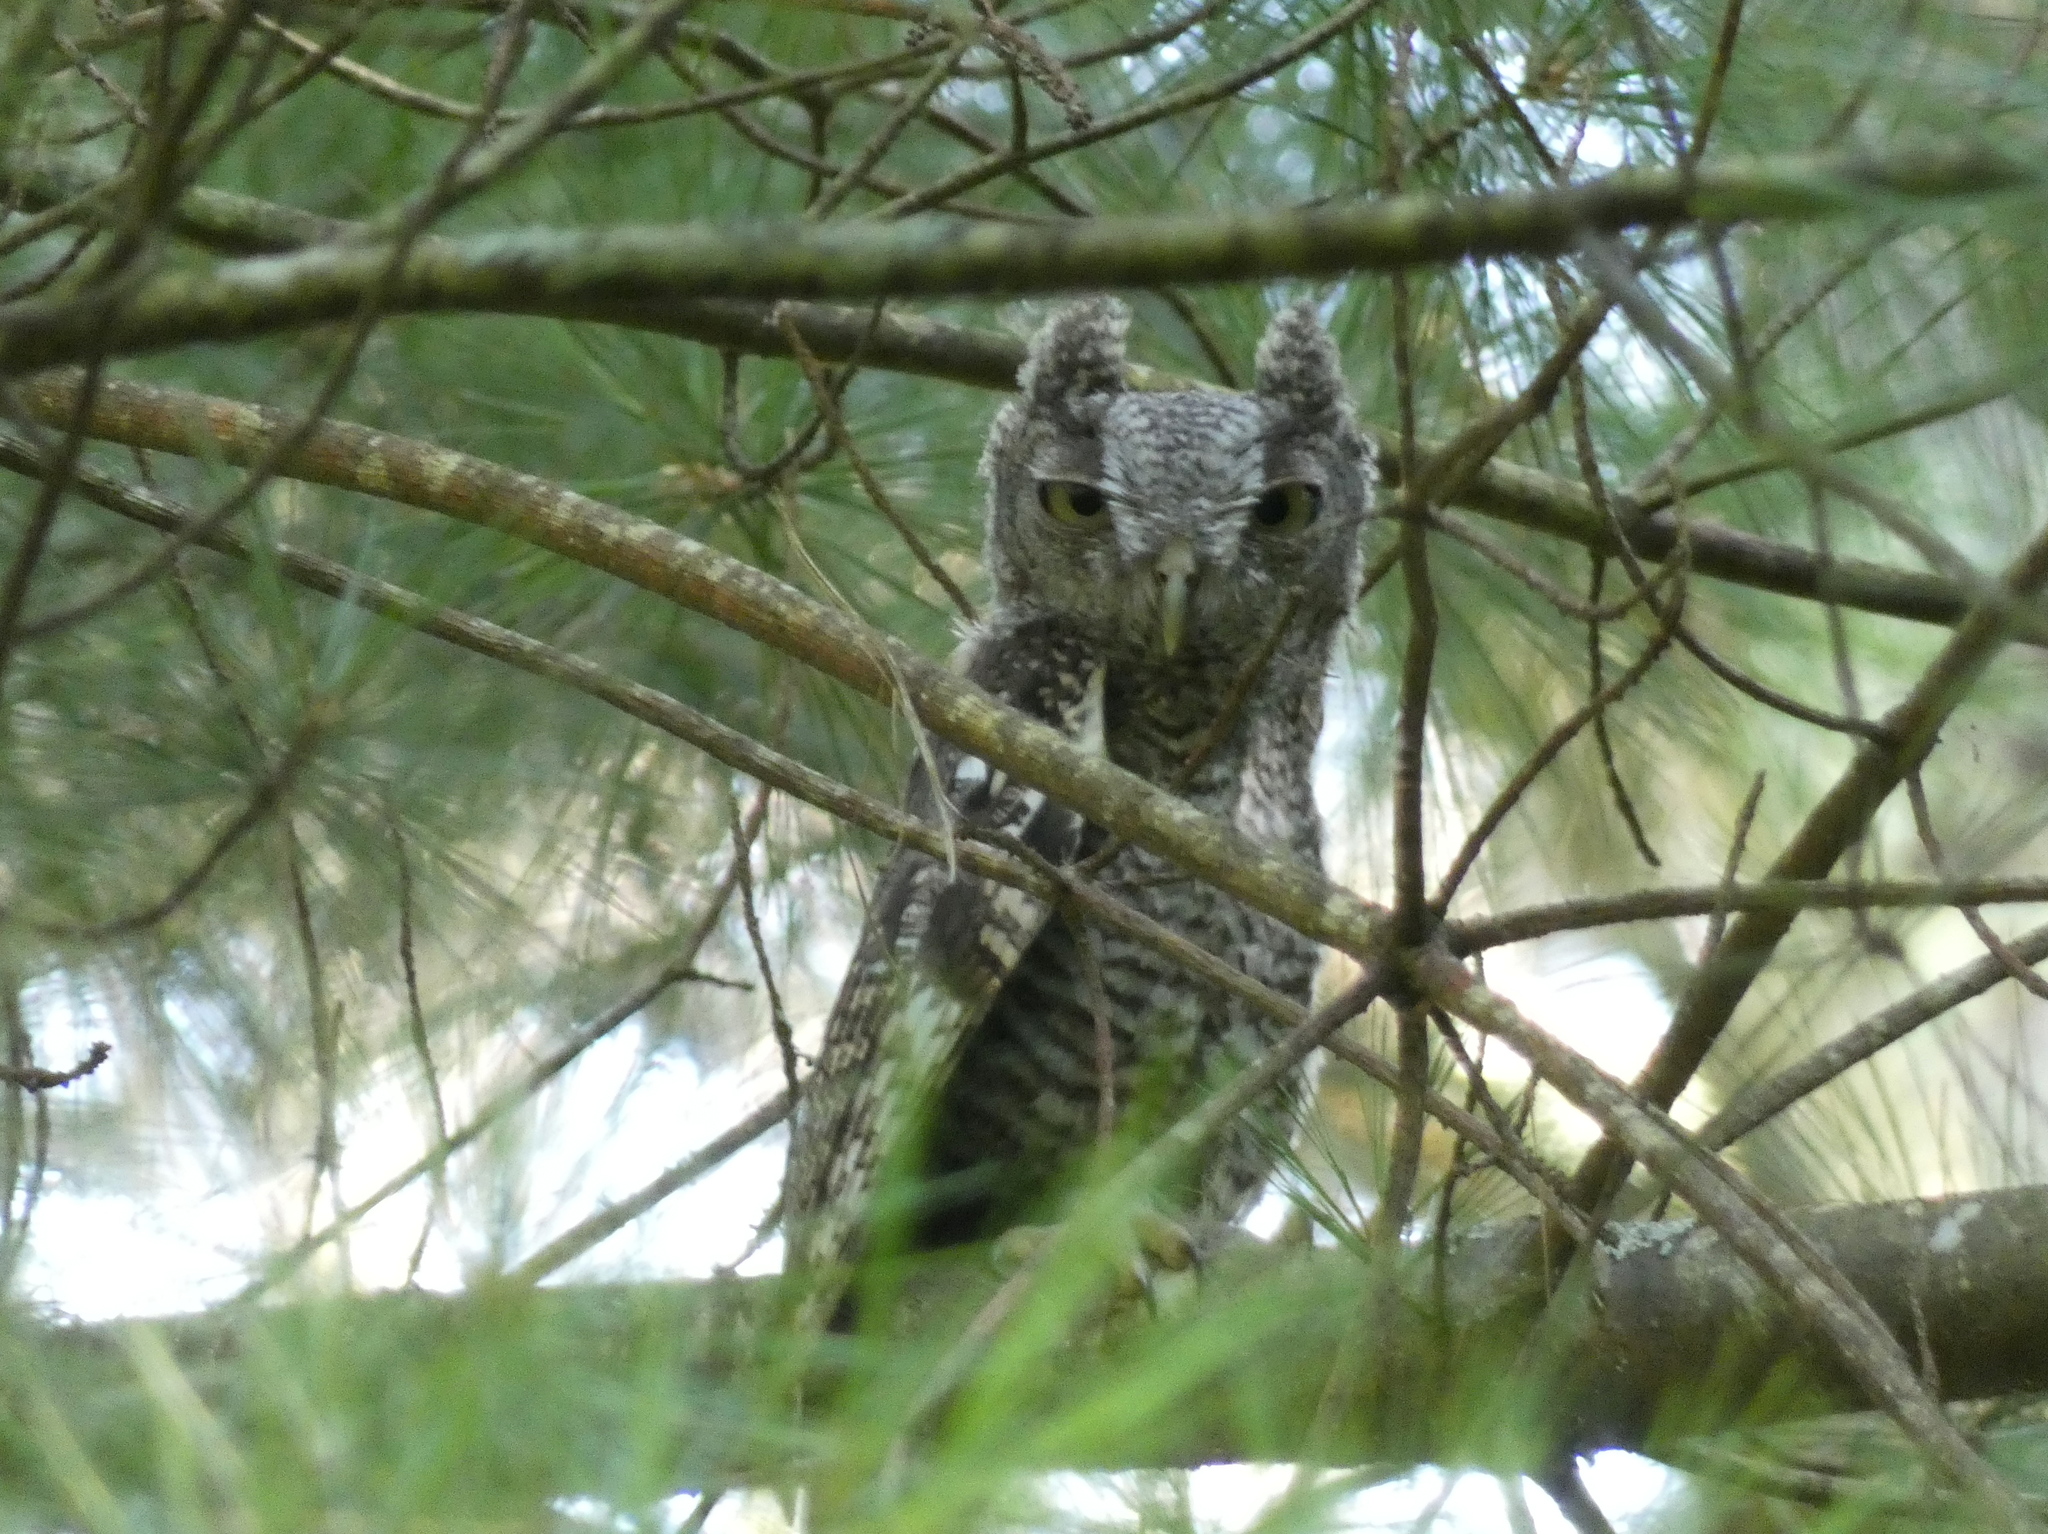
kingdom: Animalia
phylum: Chordata
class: Aves
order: Strigiformes
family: Strigidae
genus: Megascops
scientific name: Megascops asio
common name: Eastern screech-owl
